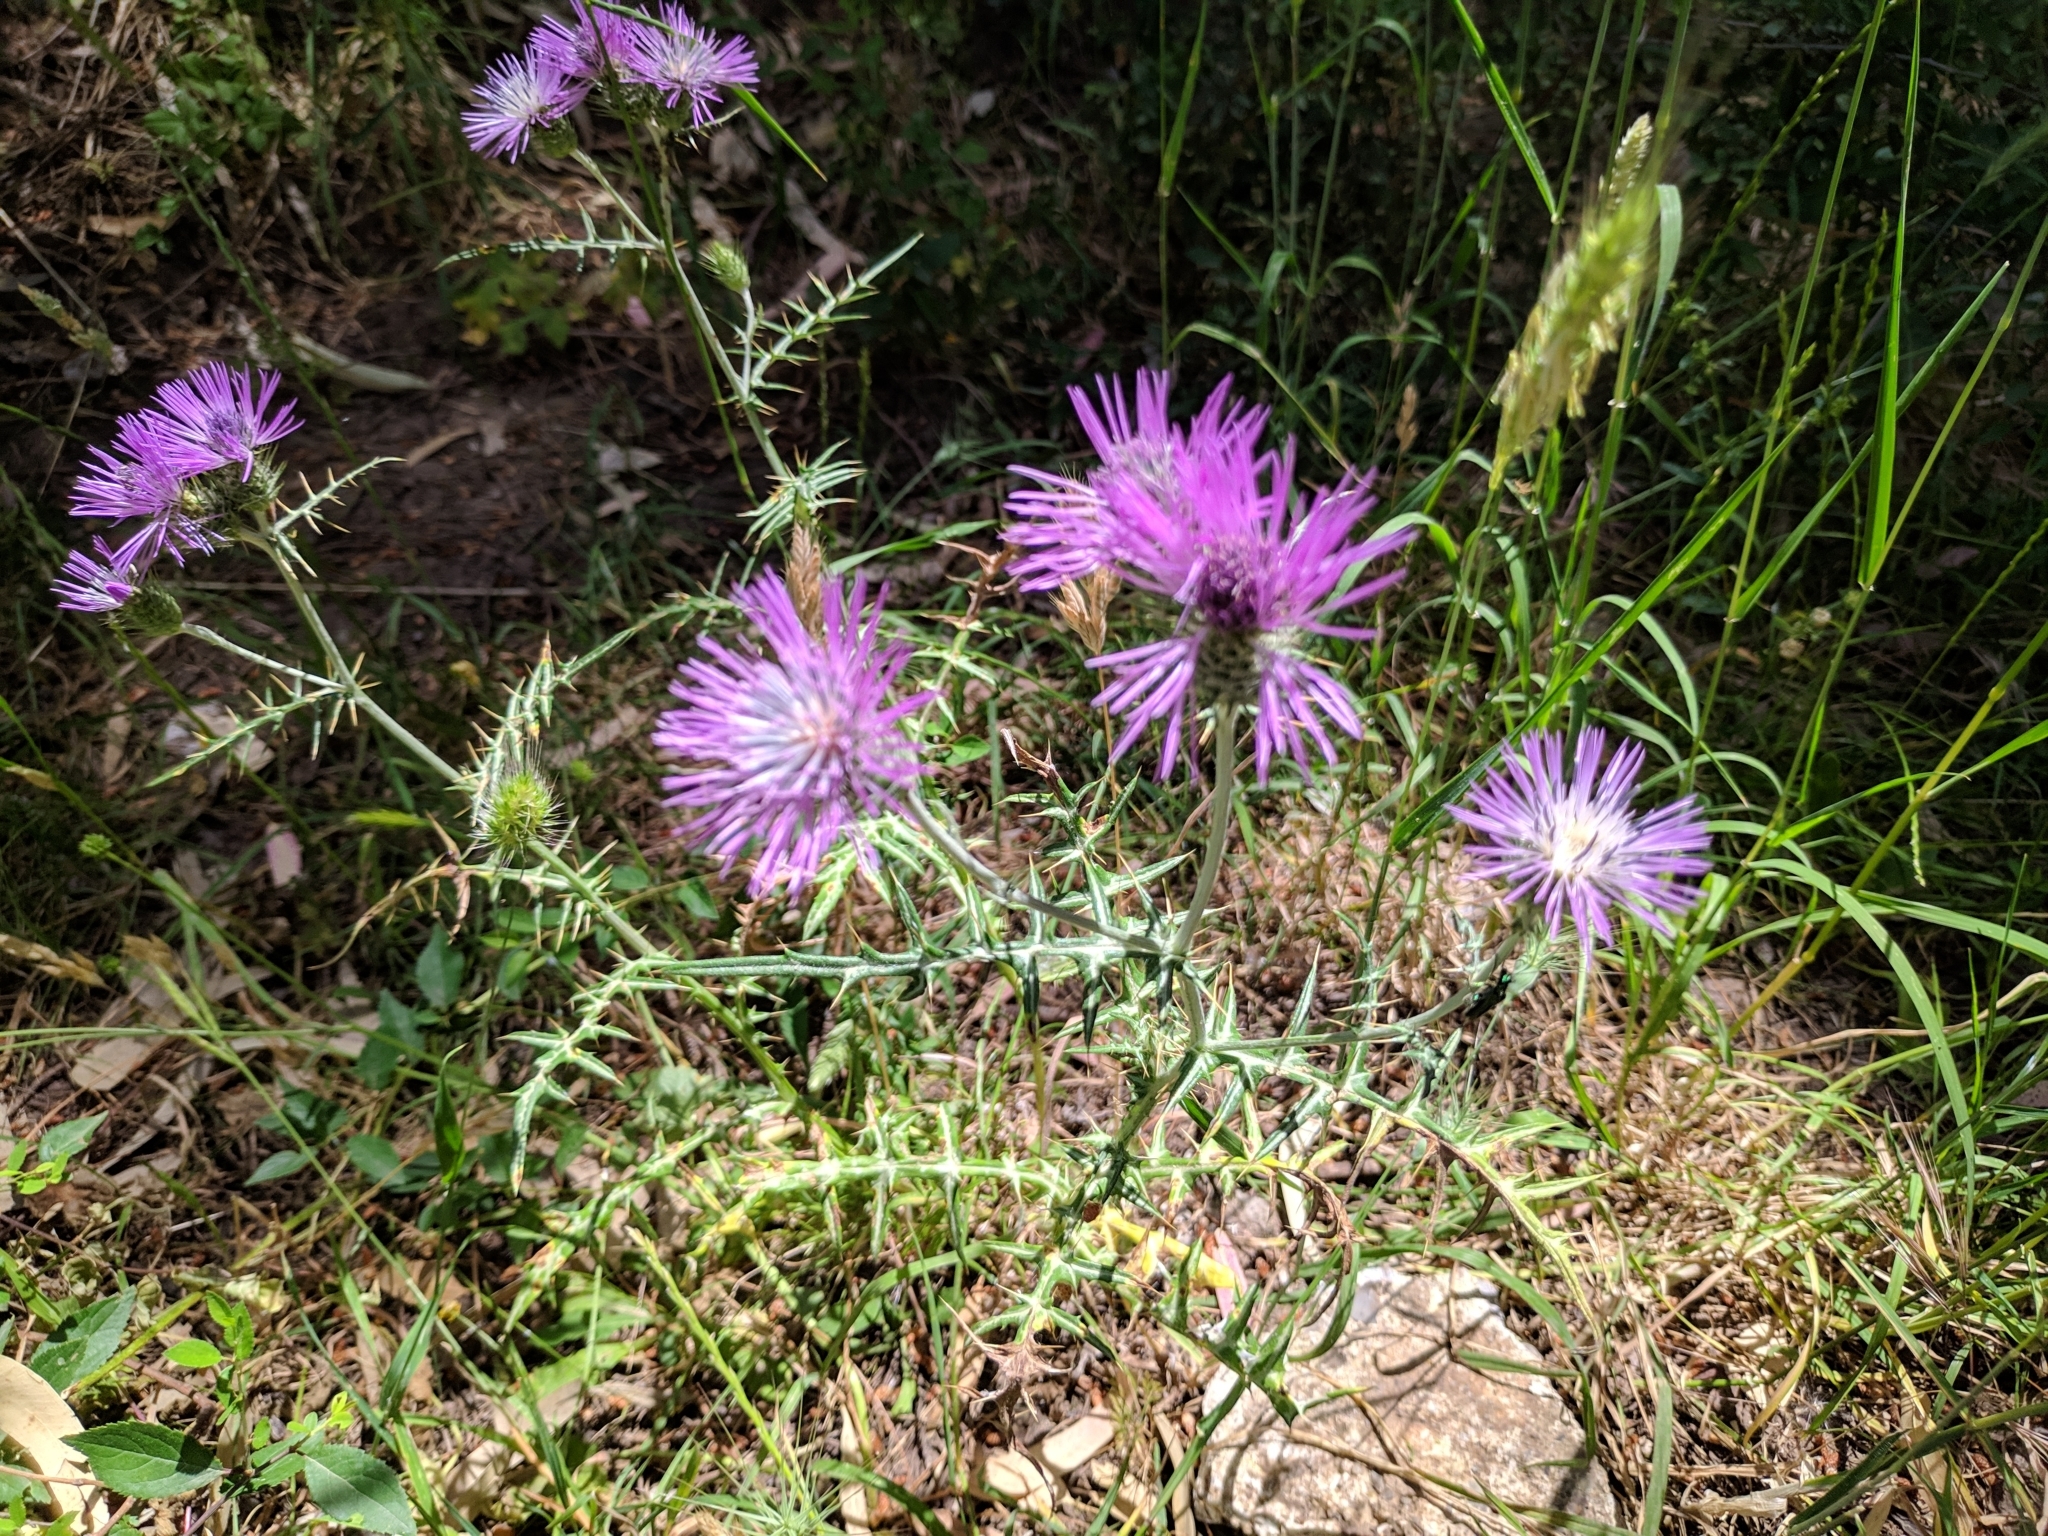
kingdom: Plantae
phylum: Tracheophyta
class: Magnoliopsida
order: Asterales
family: Asteraceae
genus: Galactites
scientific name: Galactites tomentosa
